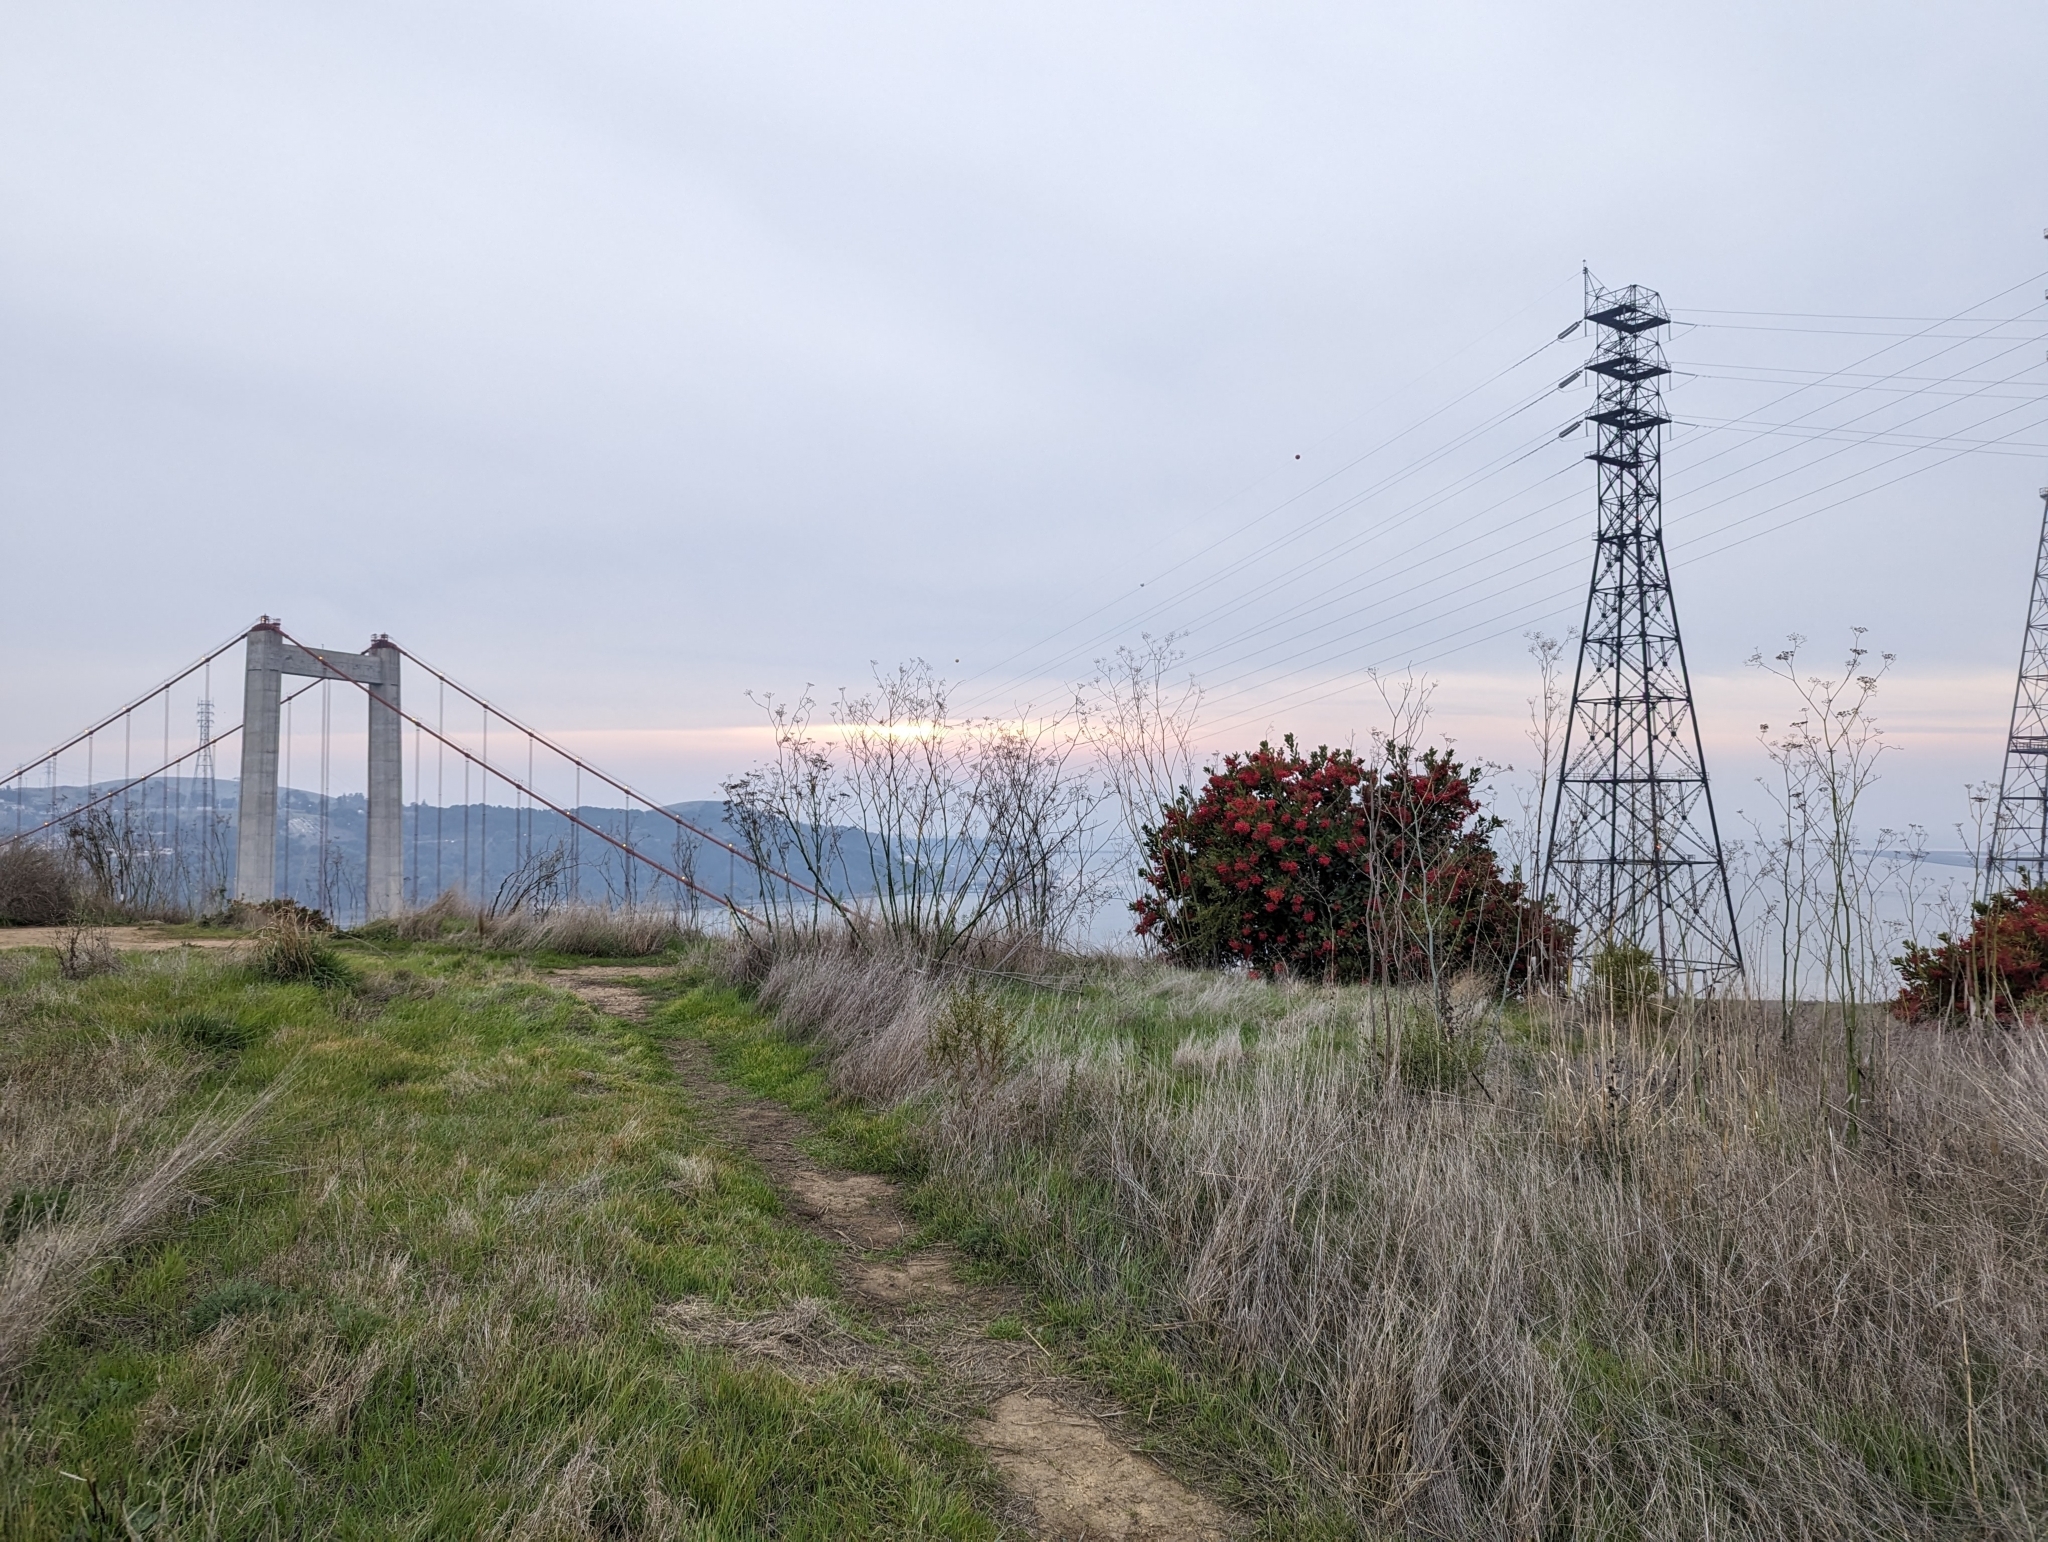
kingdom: Plantae
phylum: Tracheophyta
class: Magnoliopsida
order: Rosales
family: Rosaceae
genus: Heteromeles
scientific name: Heteromeles arbutifolia
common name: California-holly
